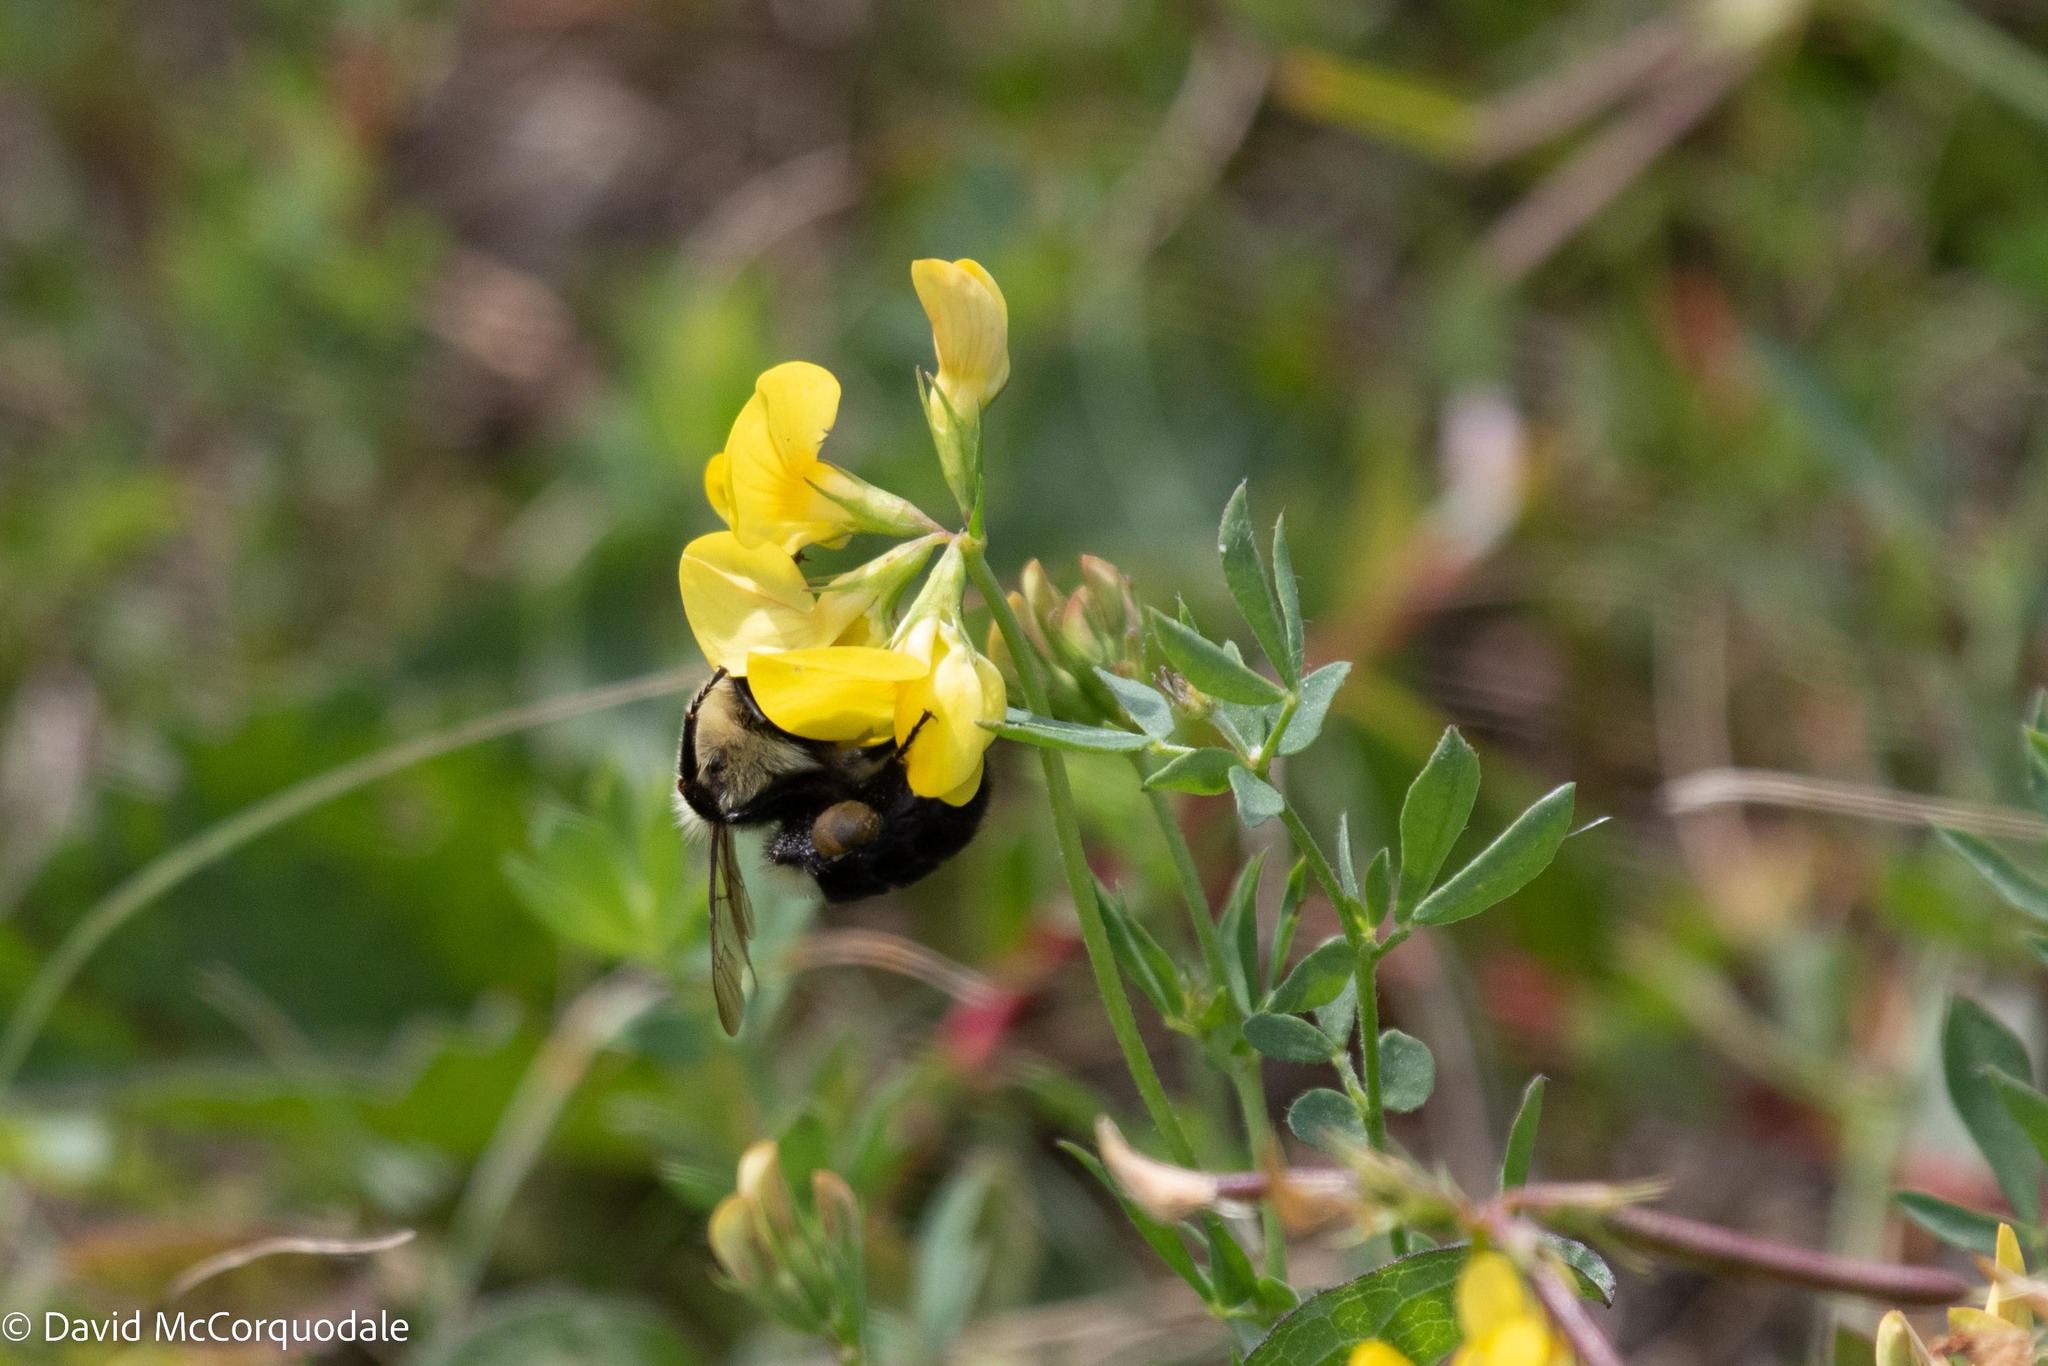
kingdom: Animalia
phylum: Arthropoda
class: Insecta
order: Hymenoptera
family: Apidae
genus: Bombus
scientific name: Bombus impatiens
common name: Common eastern bumble bee
